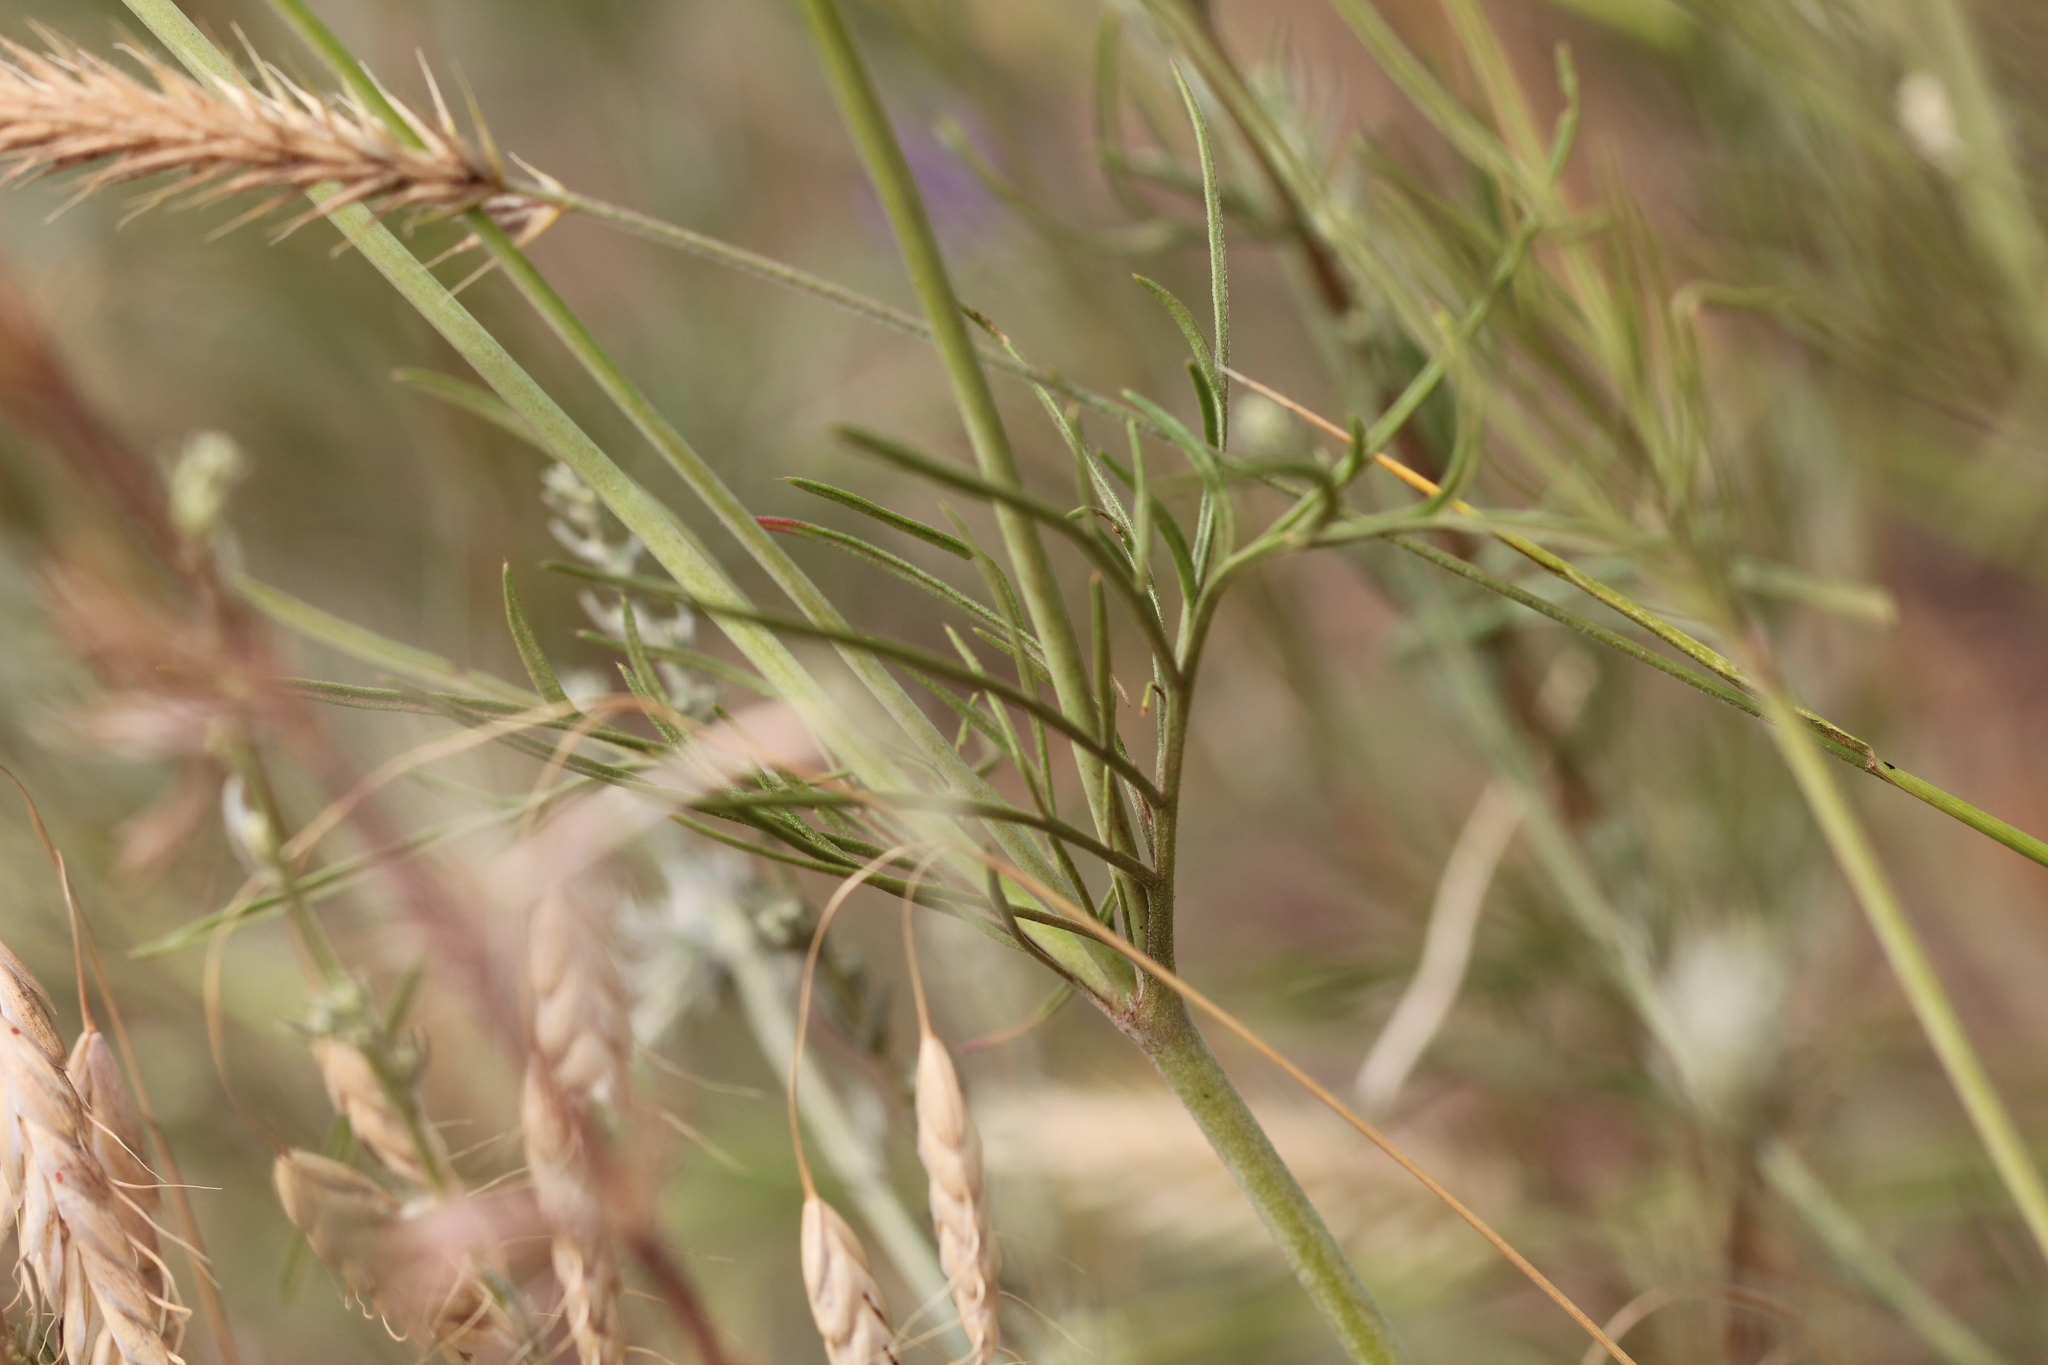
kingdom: Plantae
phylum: Tracheophyta
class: Magnoliopsida
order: Dipsacales
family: Caprifoliaceae
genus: Scabiosa
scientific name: Scabiosa ochroleuca
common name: Cream pincushions
